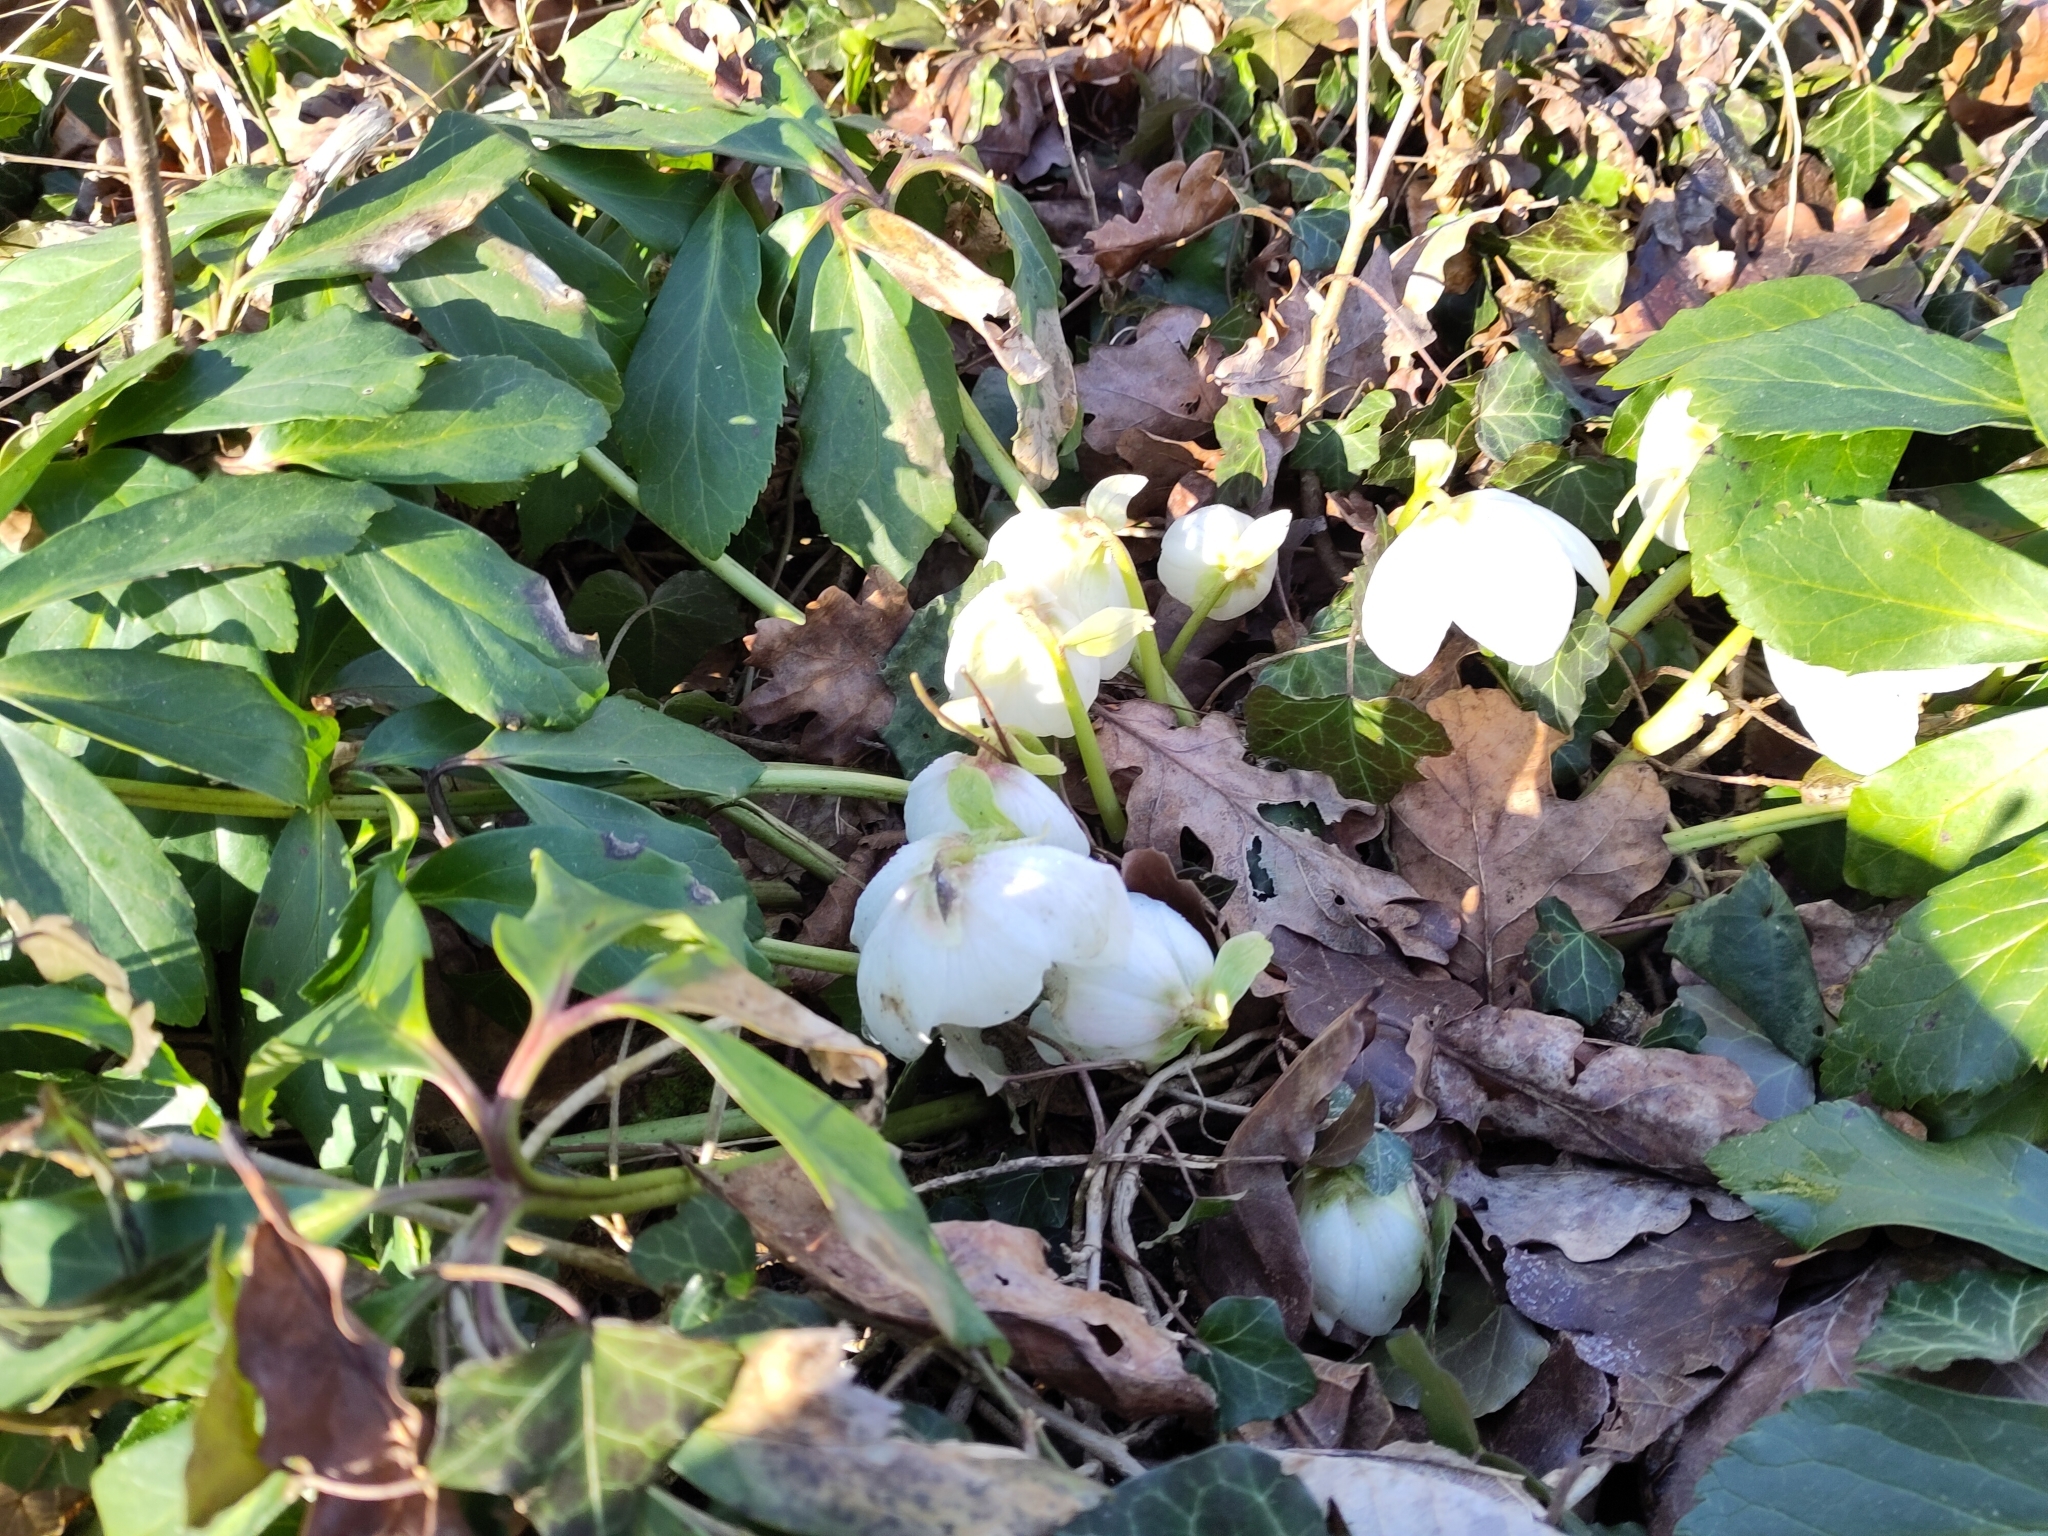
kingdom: Plantae
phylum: Tracheophyta
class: Magnoliopsida
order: Ranunculales
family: Ranunculaceae
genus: Helleborus
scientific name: Helleborus niger
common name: Black hellebore
